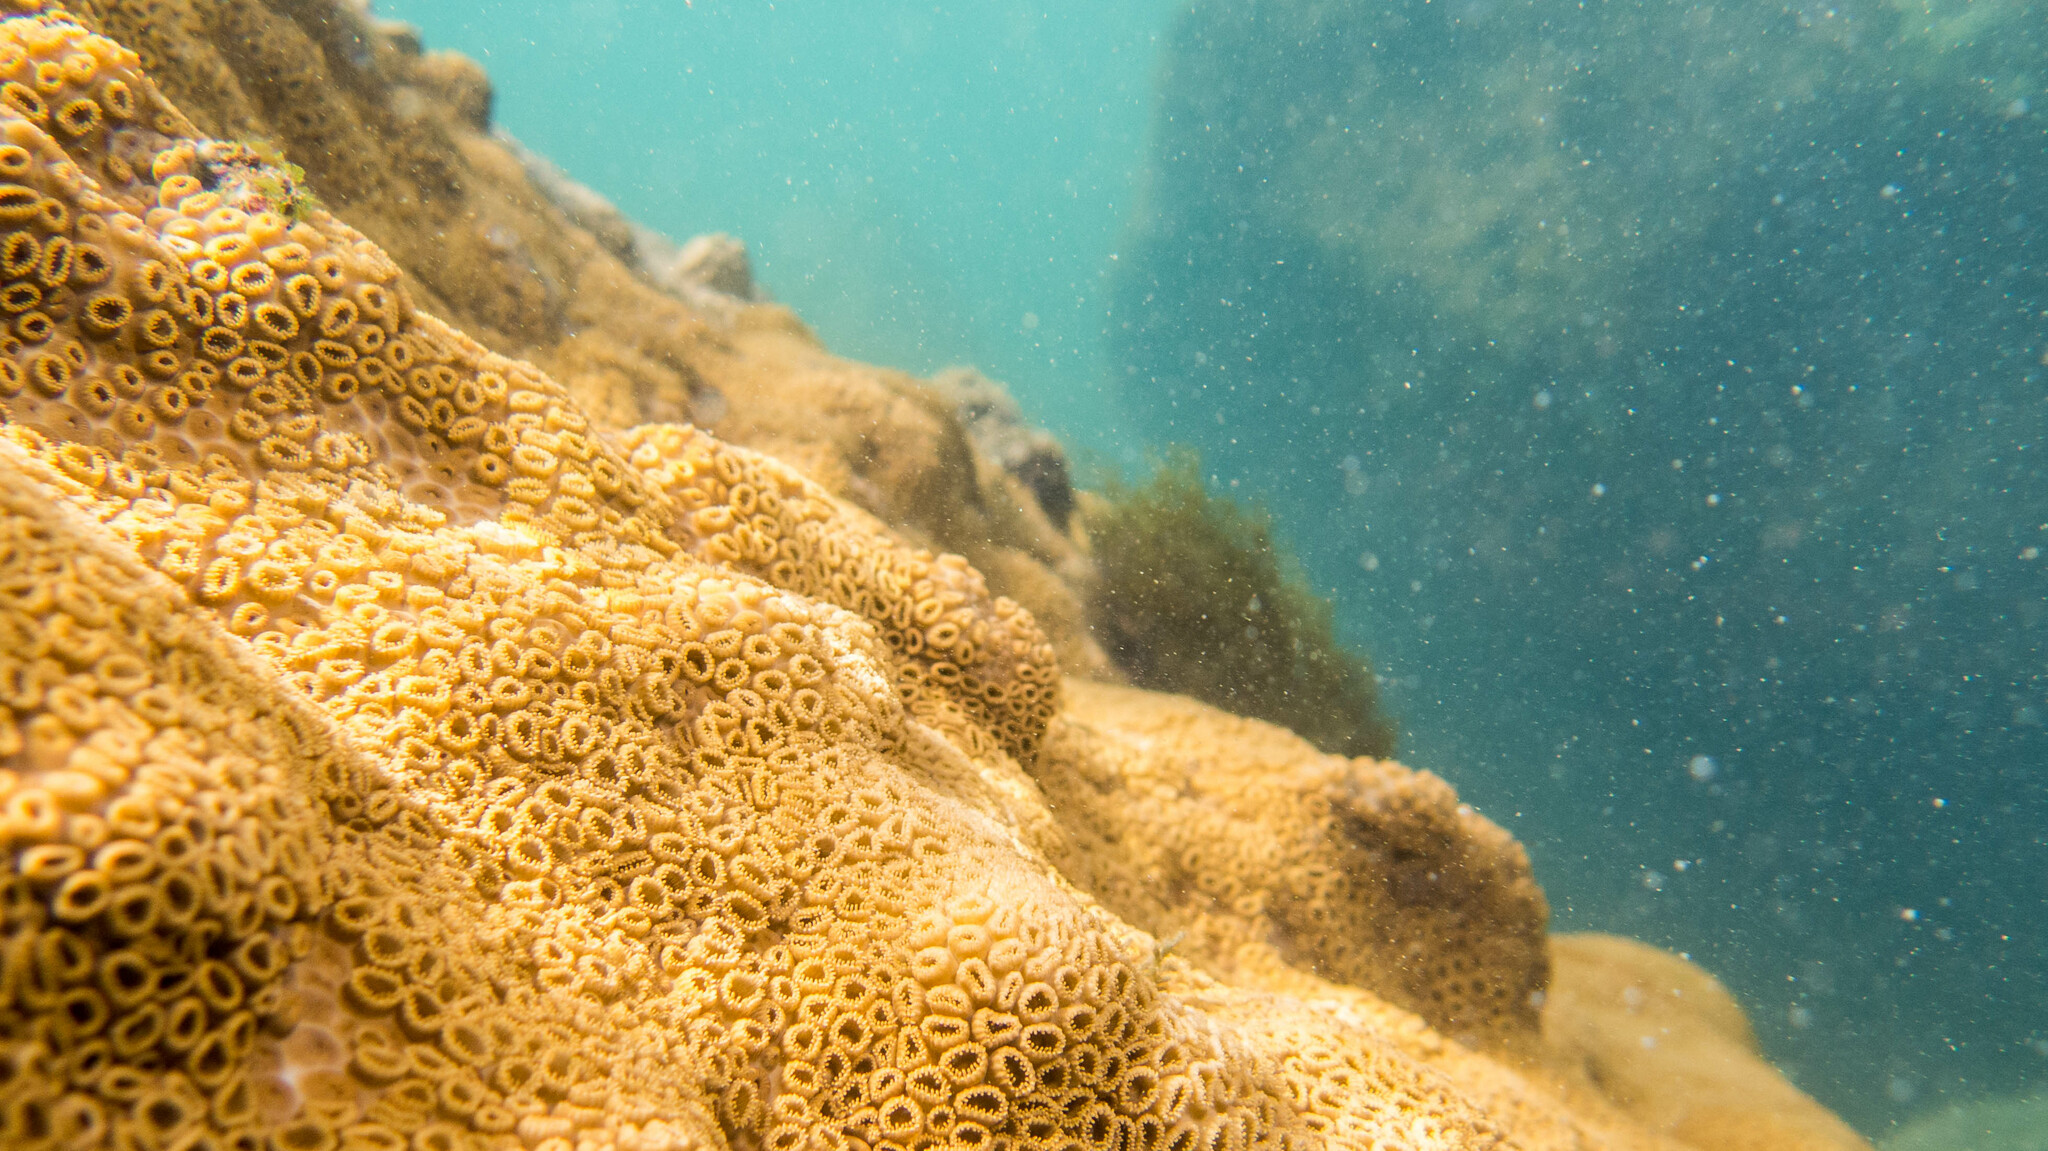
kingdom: Animalia
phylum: Cnidaria
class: Anthozoa
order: Zoantharia
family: Sphenopidae
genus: Palythoa
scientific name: Palythoa caribaeorum
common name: Encrusting colonial anemone
